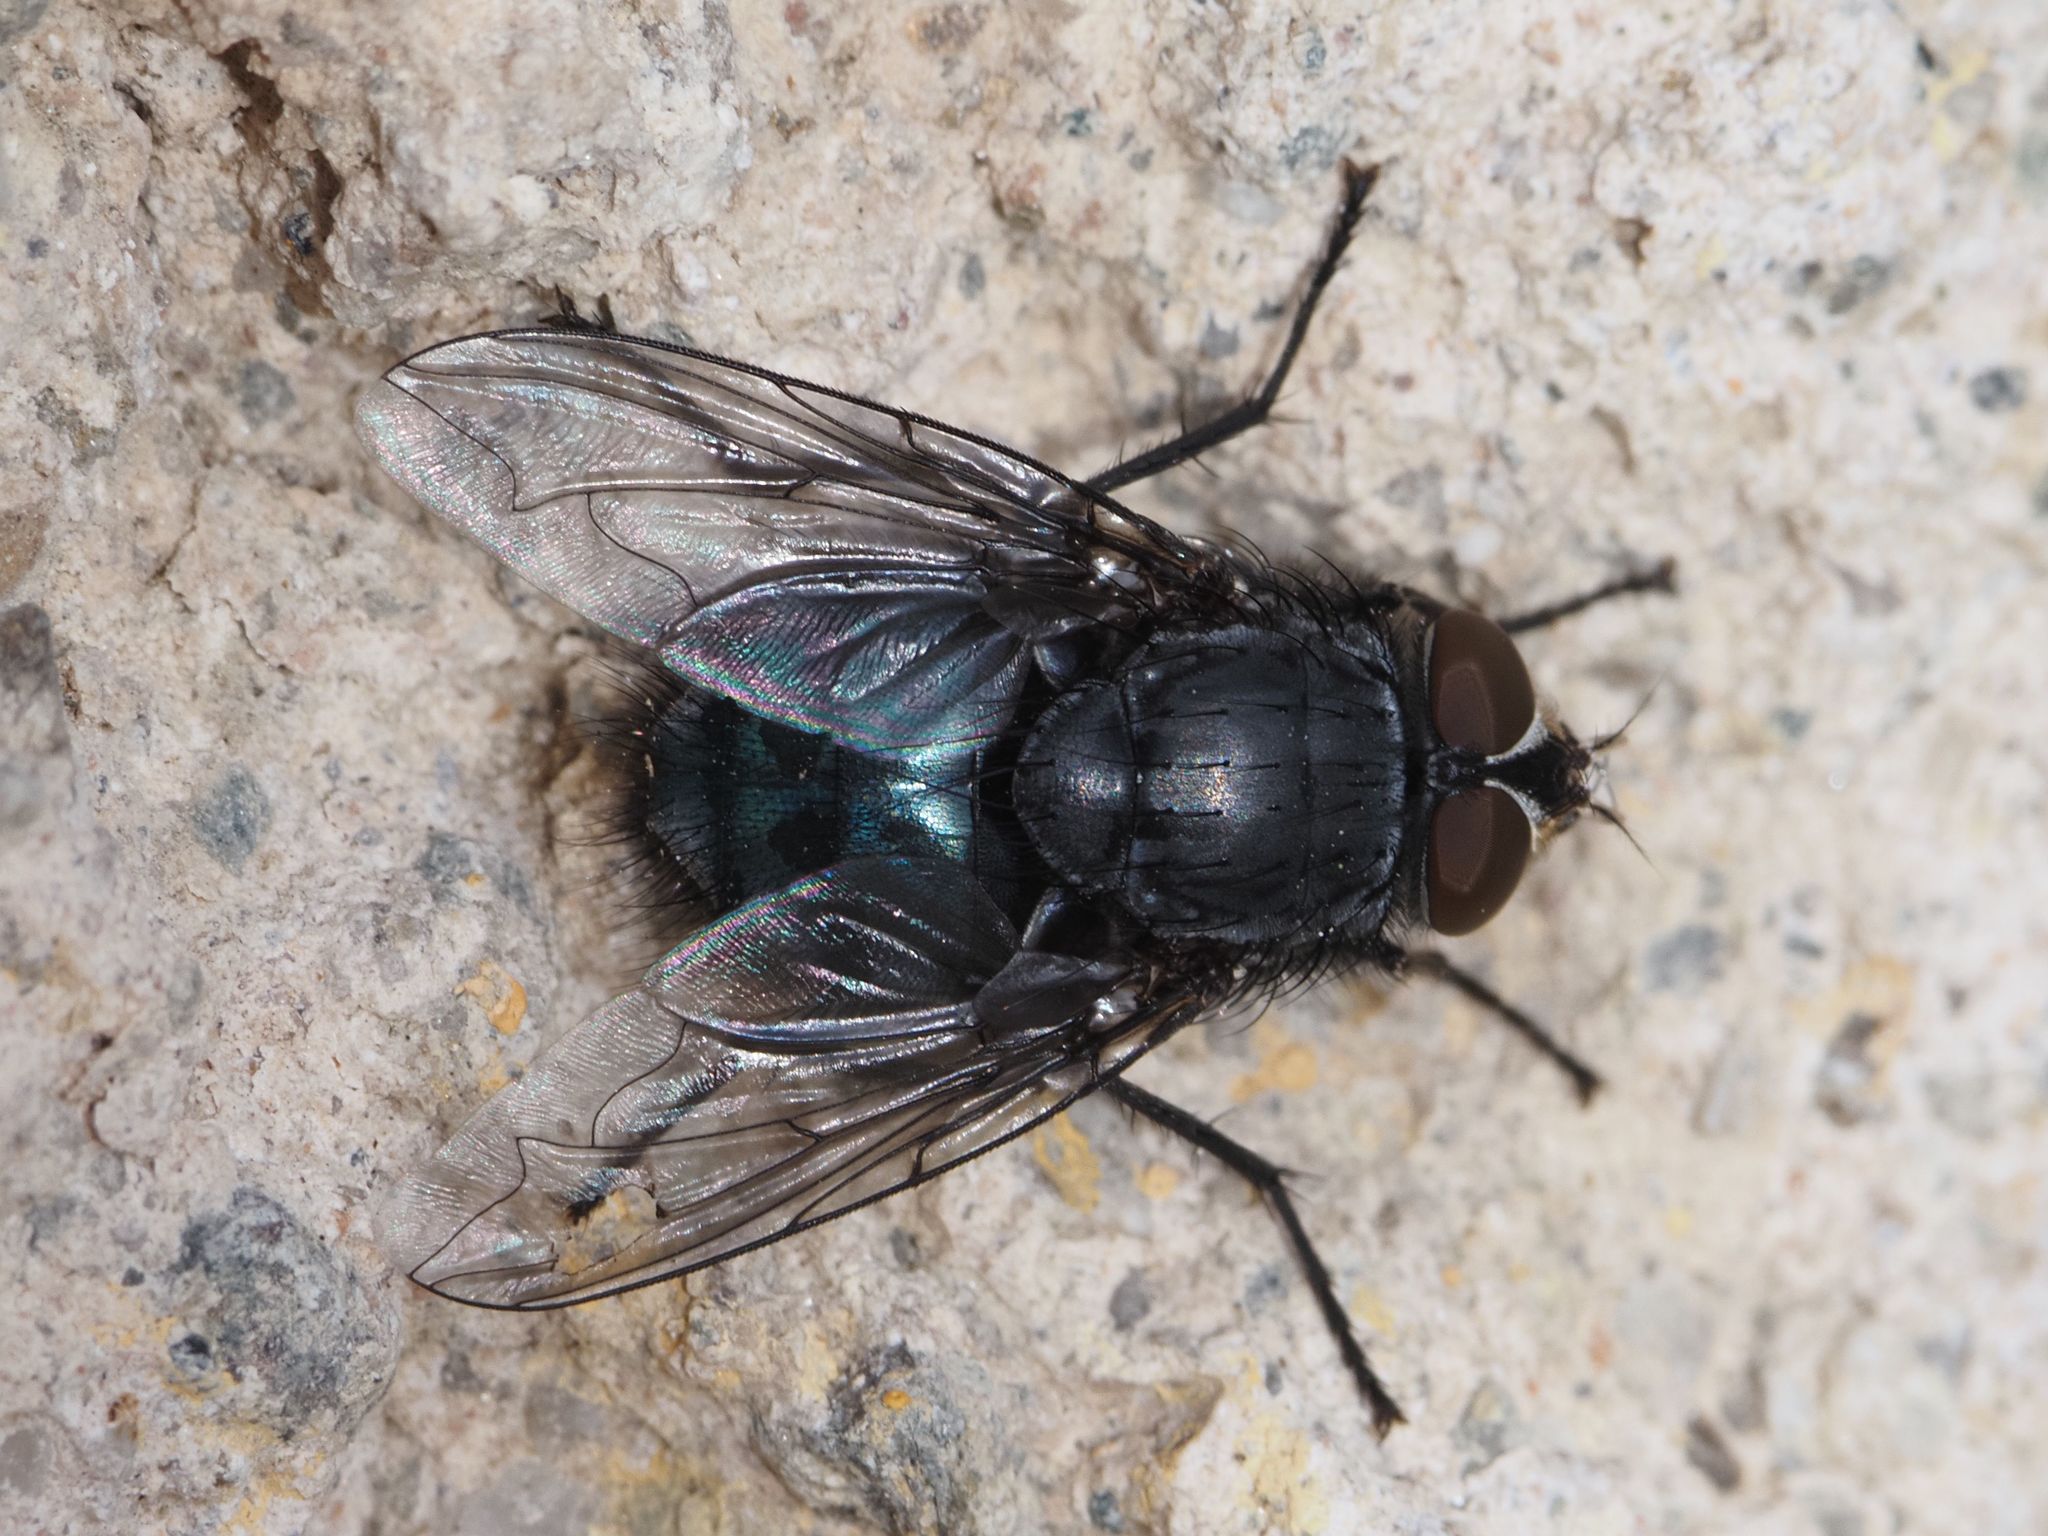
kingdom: Animalia
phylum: Arthropoda
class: Insecta
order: Diptera
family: Calliphoridae
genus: Calliphora
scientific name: Calliphora vicina
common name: Common blow flie
